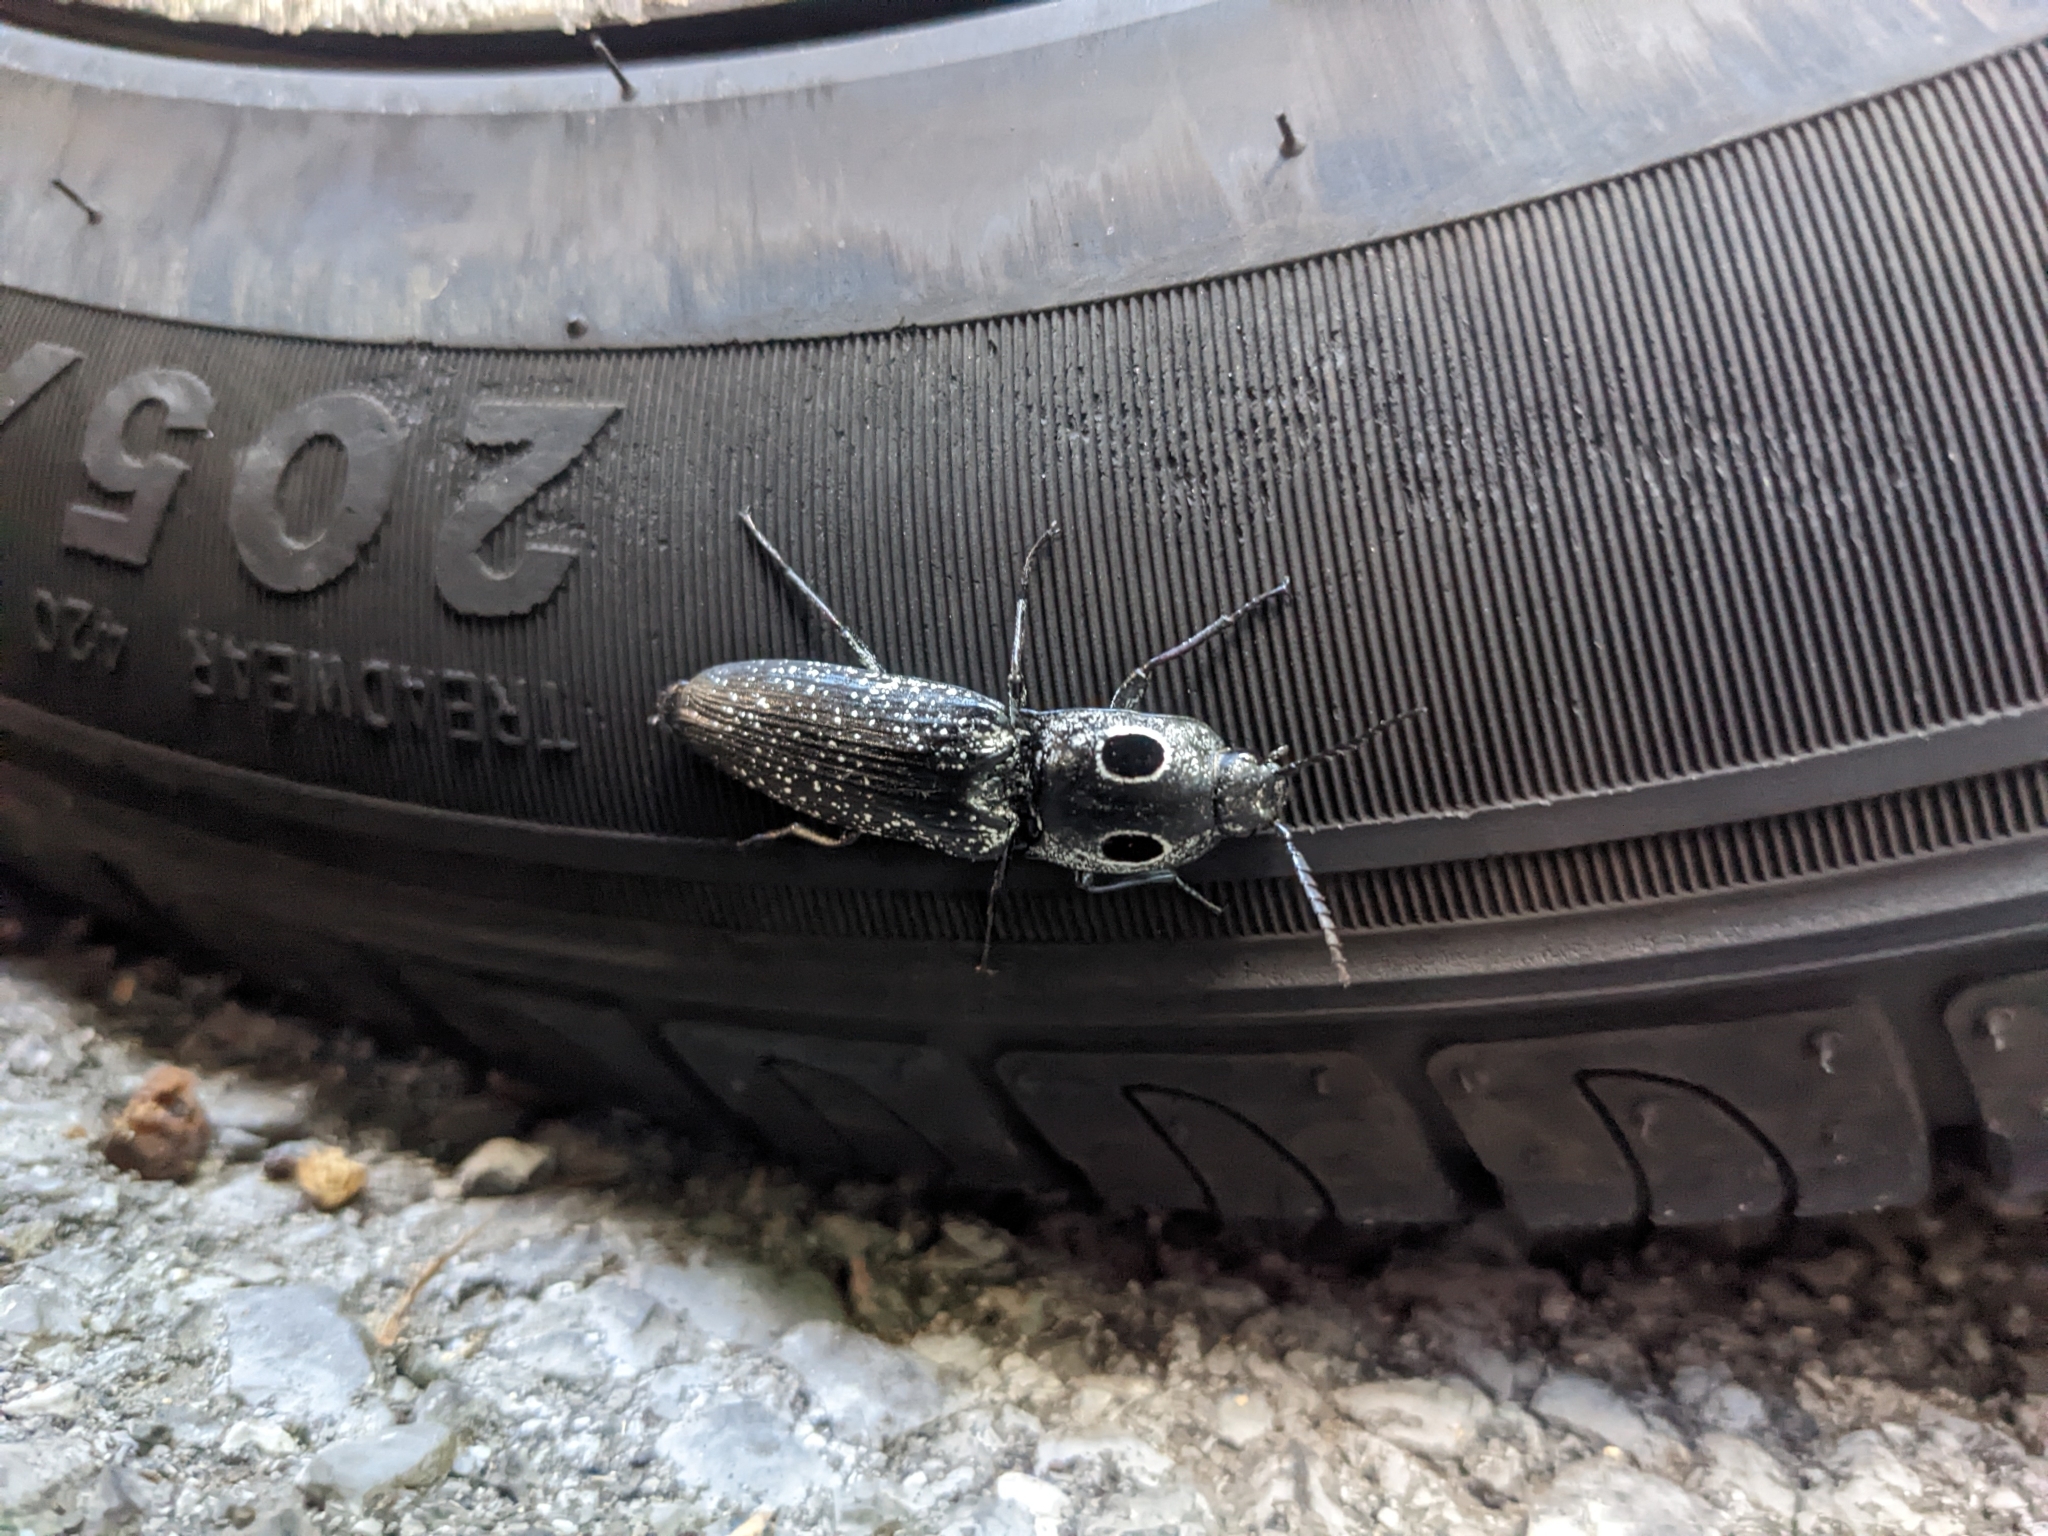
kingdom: Animalia
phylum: Arthropoda
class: Insecta
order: Coleoptera
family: Elateridae
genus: Alaus
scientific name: Alaus oculatus
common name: Eastern eyed click beetle
